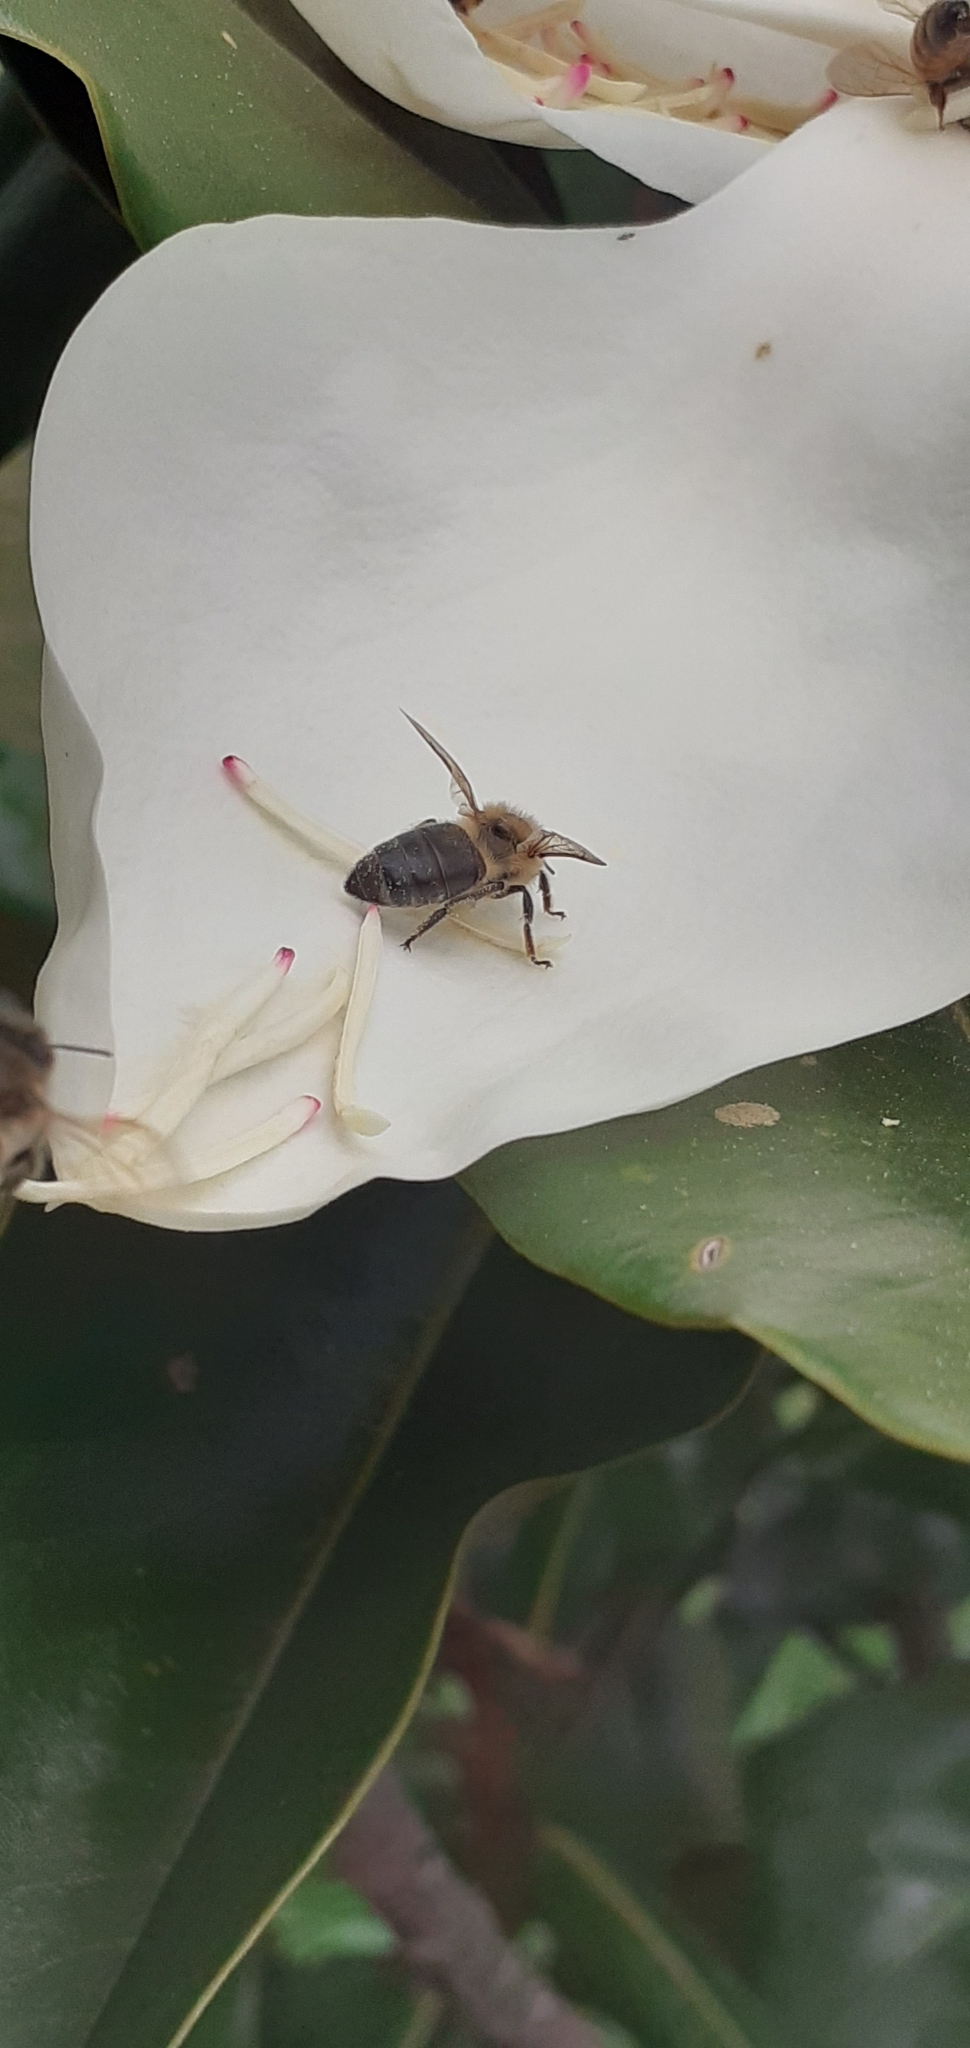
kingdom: Animalia
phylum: Arthropoda
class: Insecta
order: Hymenoptera
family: Apidae
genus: Apis
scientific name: Apis mellifera
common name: Honey bee
